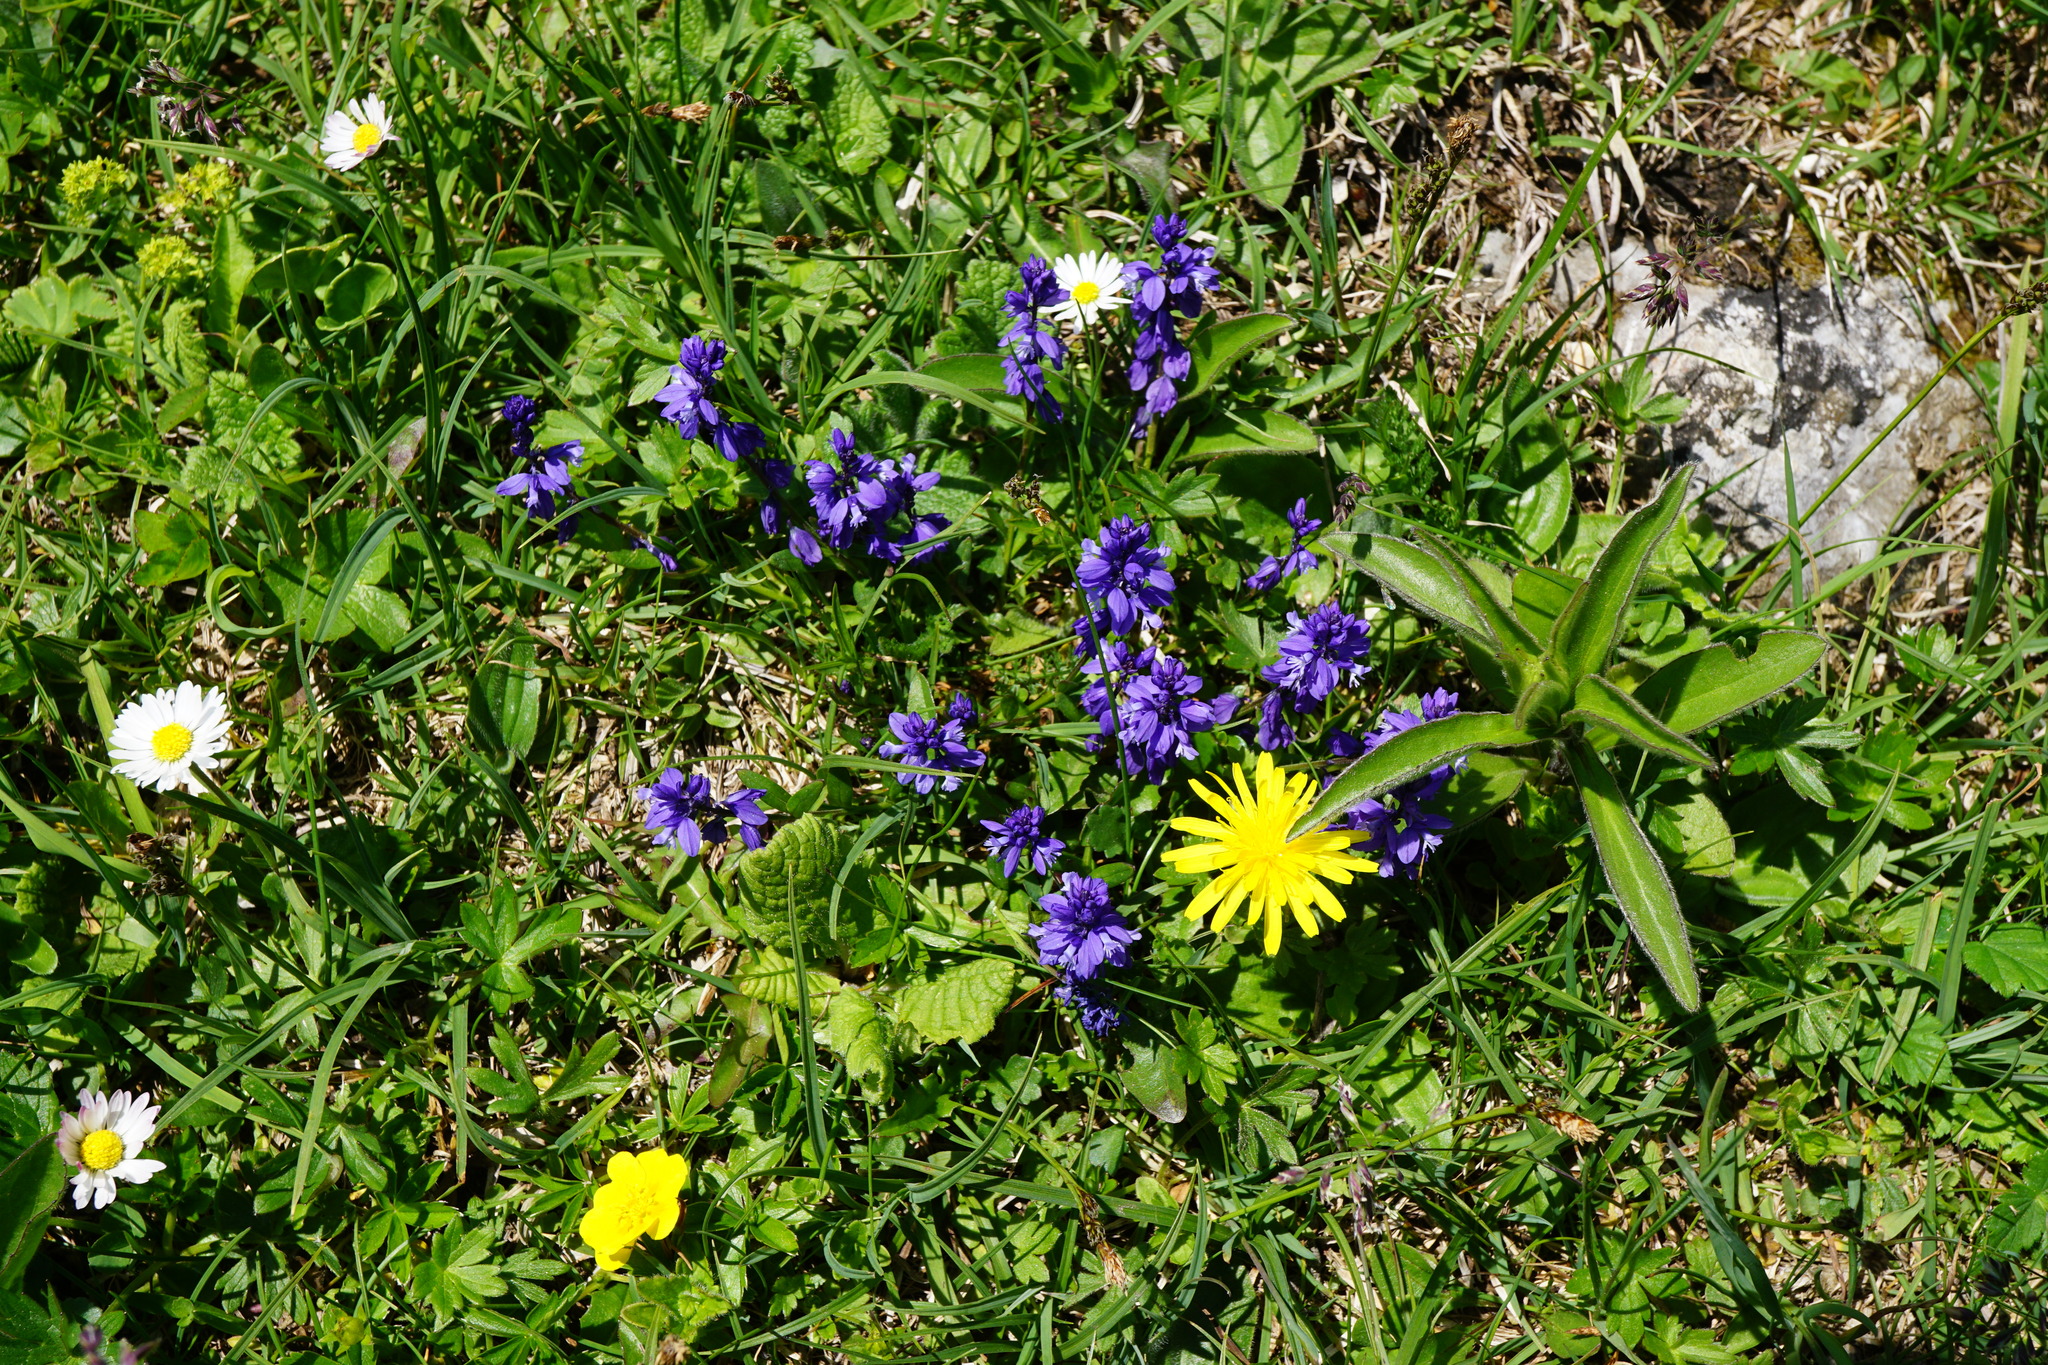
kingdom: Plantae
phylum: Tracheophyta
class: Magnoliopsida
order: Fabales
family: Polygalaceae
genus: Polygala
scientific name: Polygala amara
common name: Milkwort
